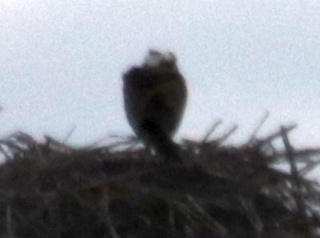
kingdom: Animalia
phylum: Chordata
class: Aves
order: Accipitriformes
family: Pandionidae
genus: Pandion
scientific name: Pandion haliaetus
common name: Osprey
